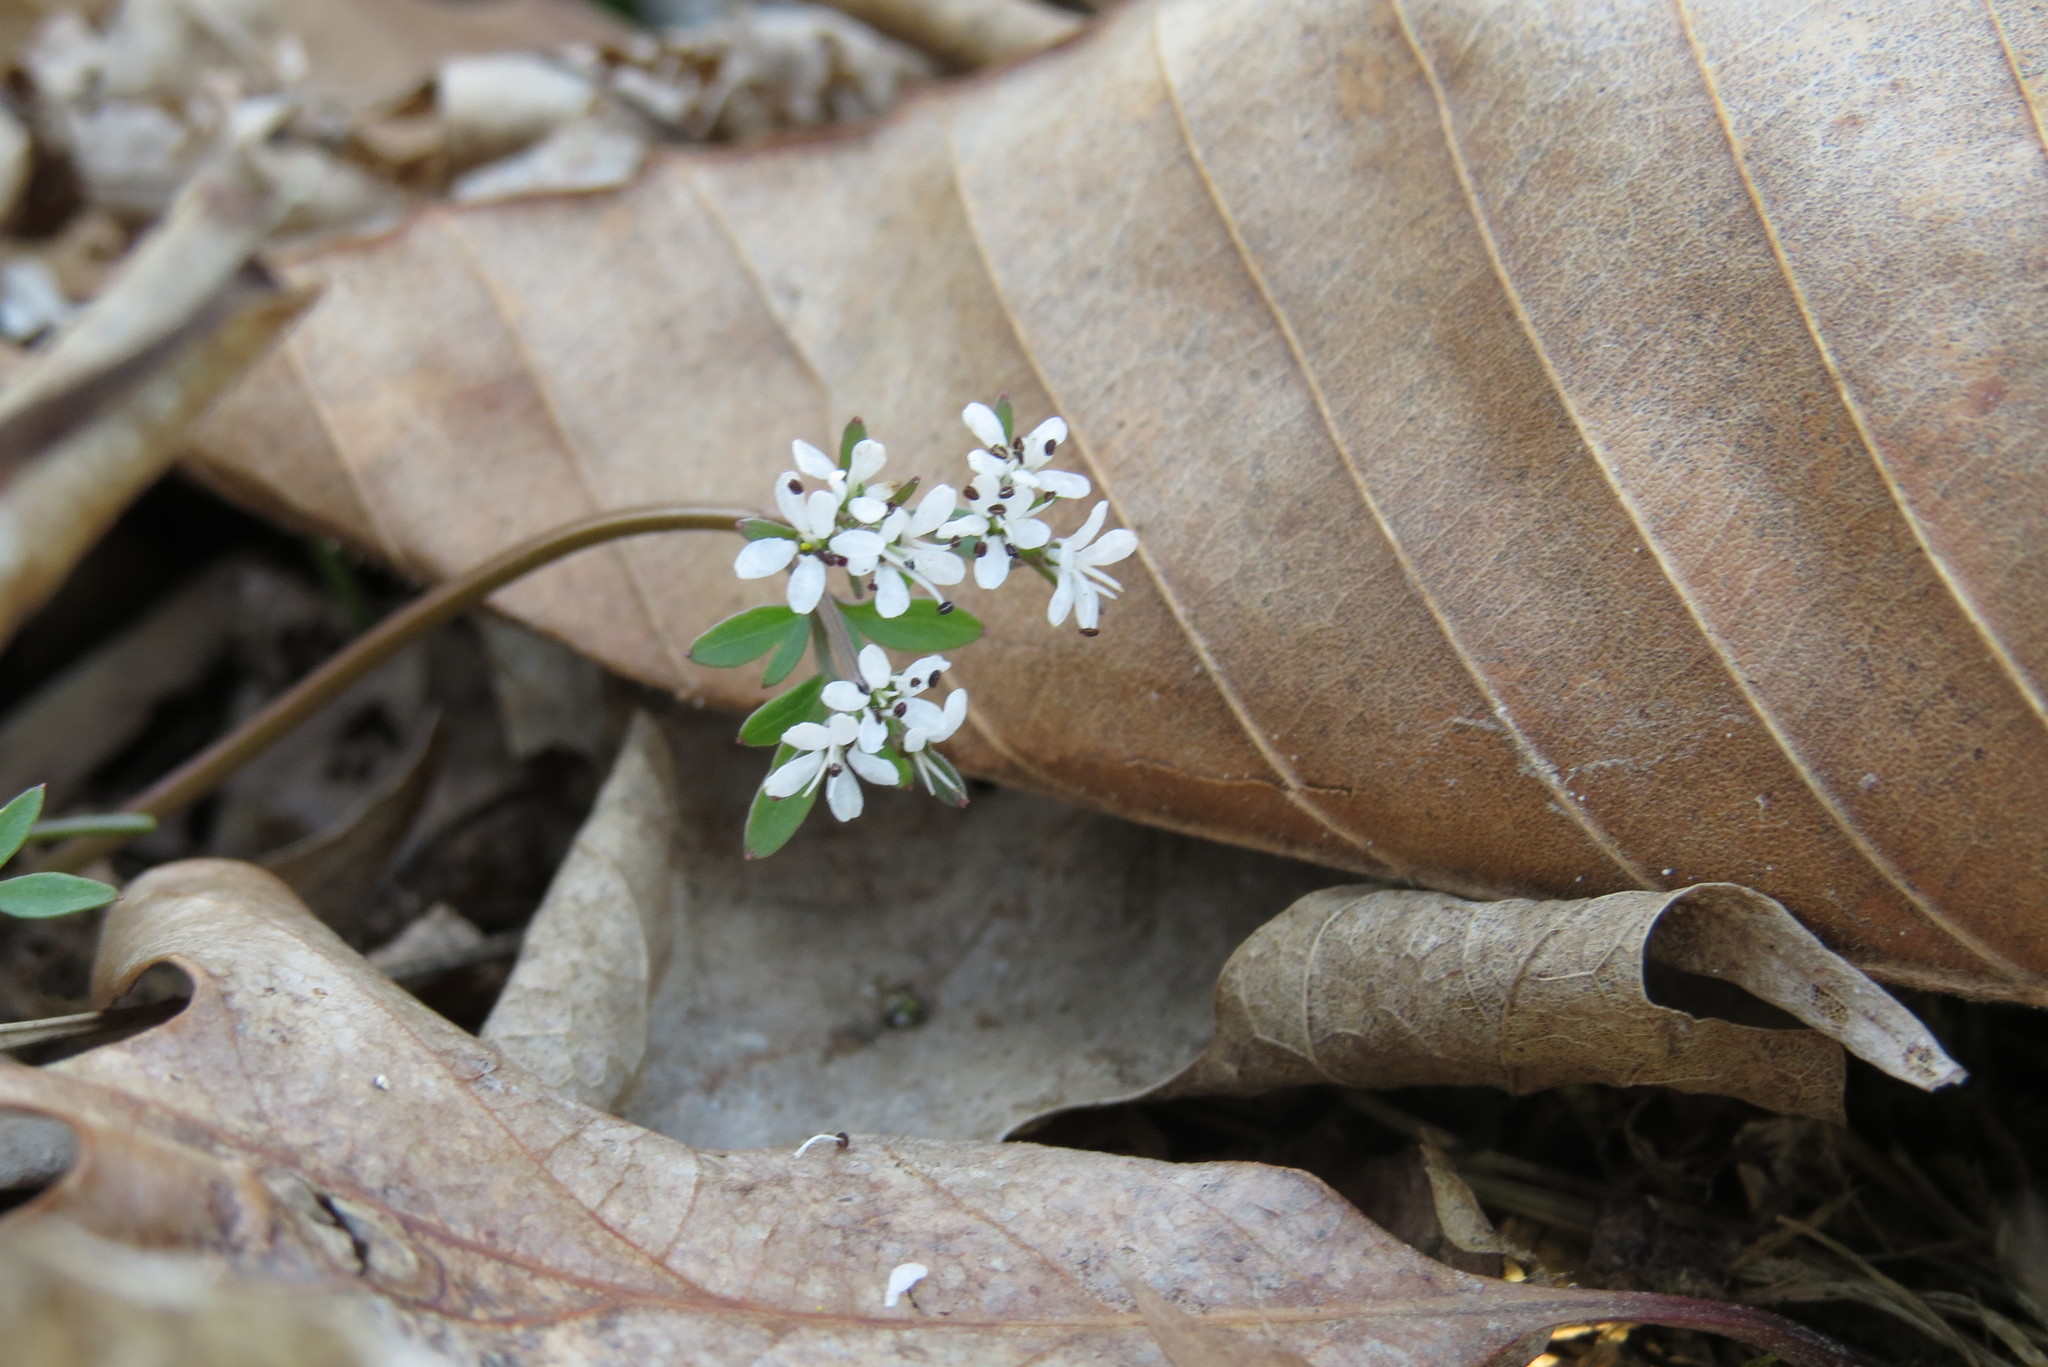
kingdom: Plantae
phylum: Tracheophyta
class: Magnoliopsida
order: Apiales
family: Apiaceae
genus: Erigenia
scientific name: Erigenia bulbosa
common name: Pepper-and-salt
